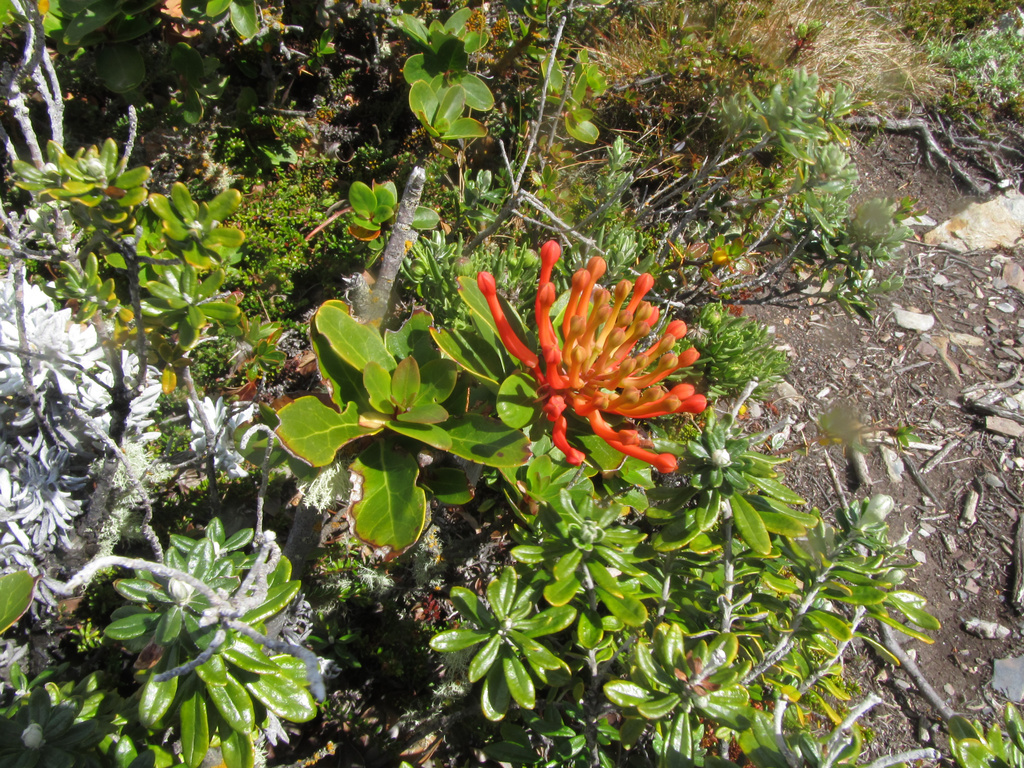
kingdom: Plantae
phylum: Tracheophyta
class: Magnoliopsida
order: Proteales
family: Proteaceae
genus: Embothrium
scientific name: Embothrium coccineum
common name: Chilean firebush
